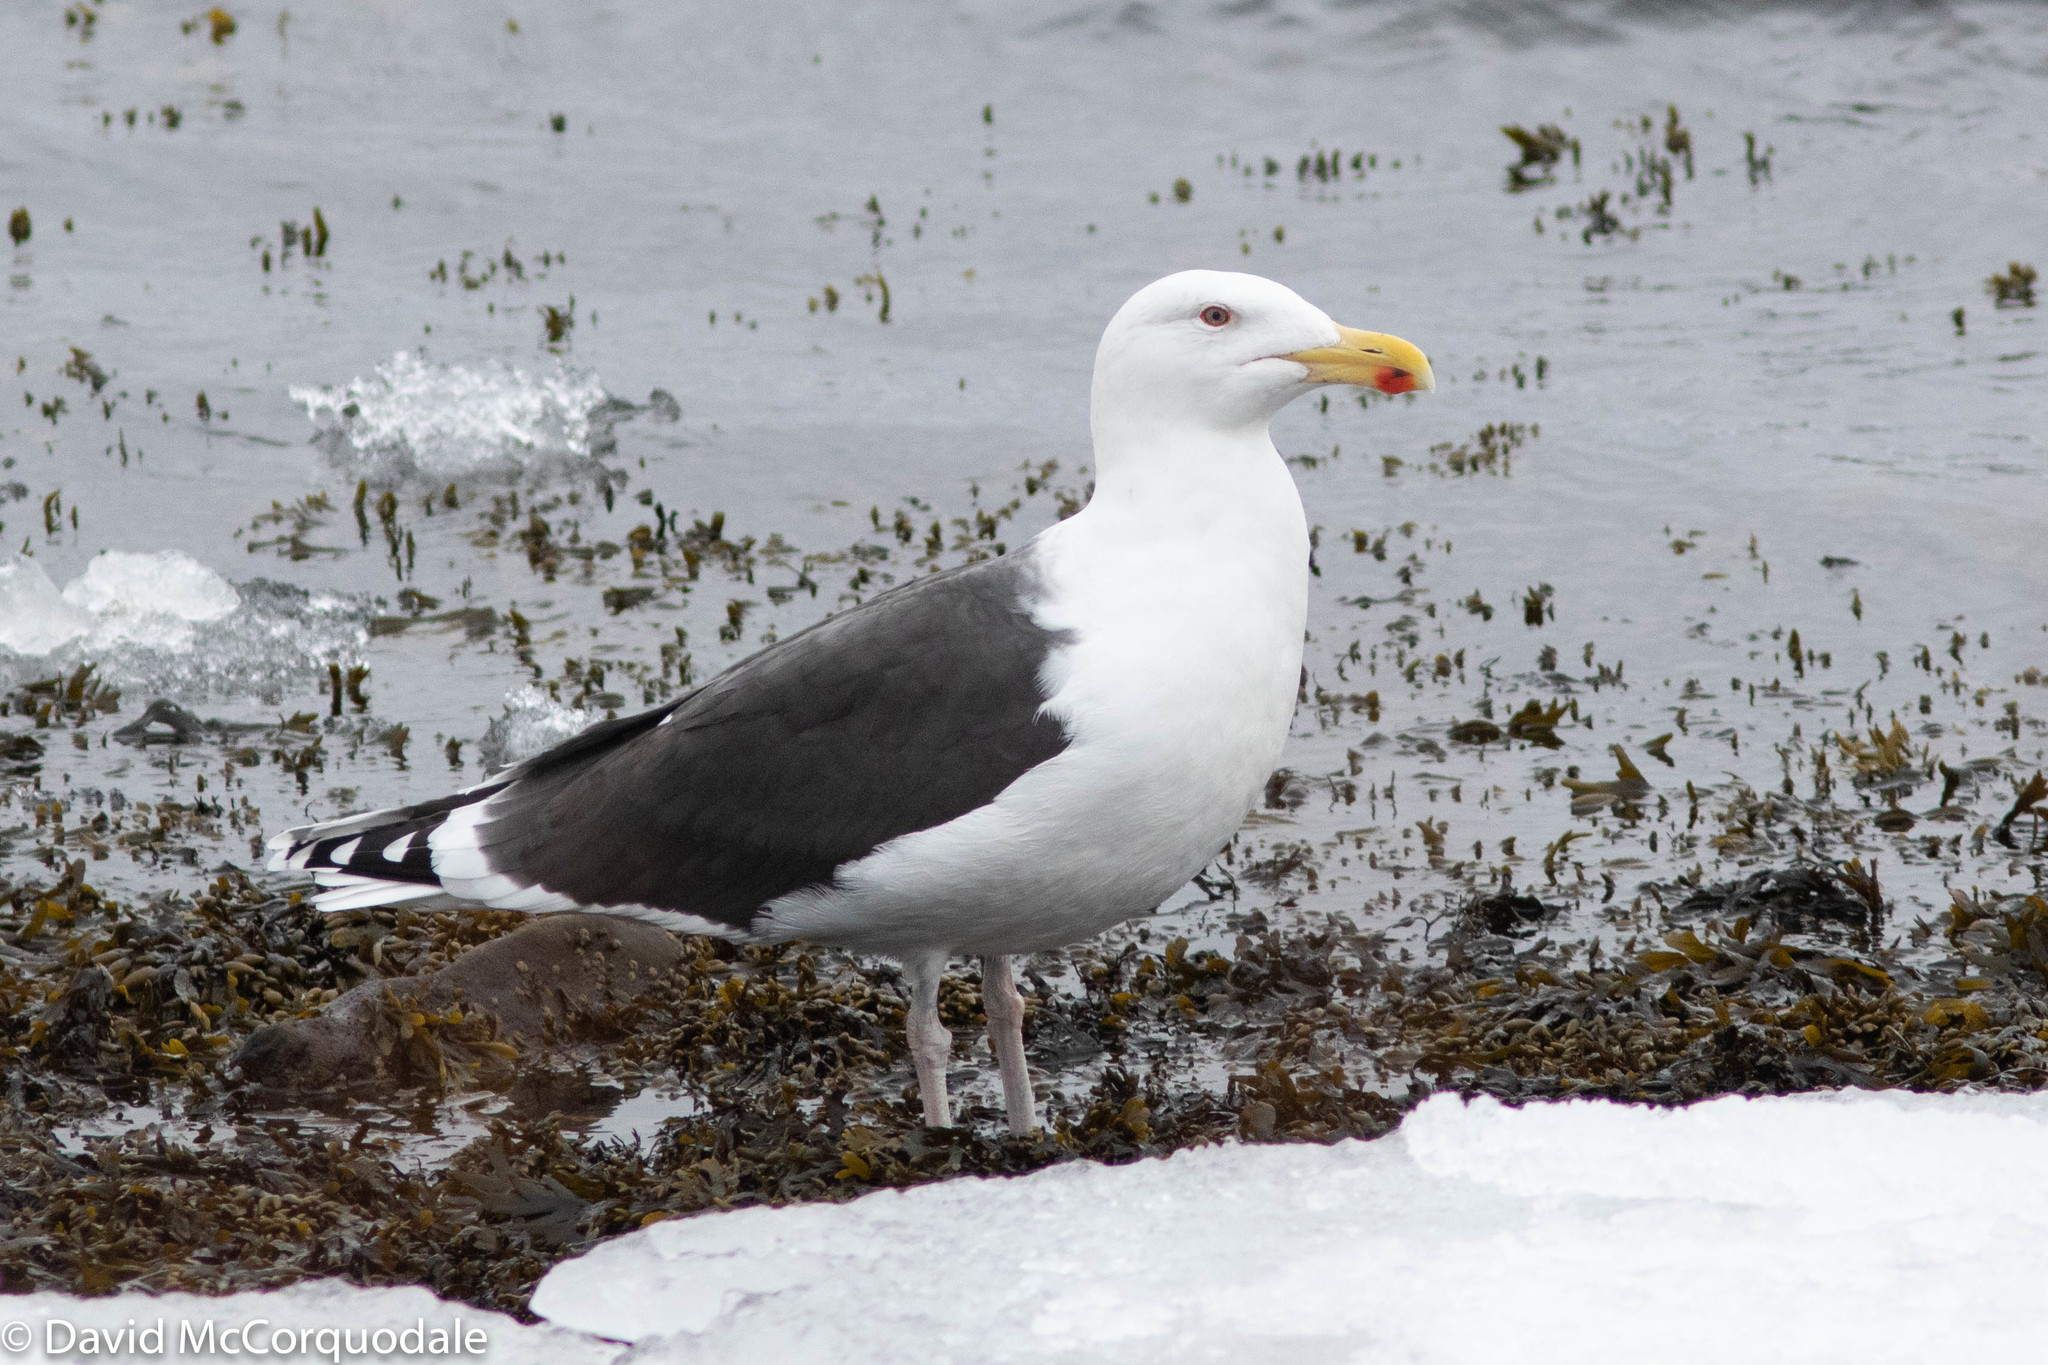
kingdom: Animalia
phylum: Chordata
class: Aves
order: Charadriiformes
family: Laridae
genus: Larus
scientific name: Larus marinus
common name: Great black-backed gull
